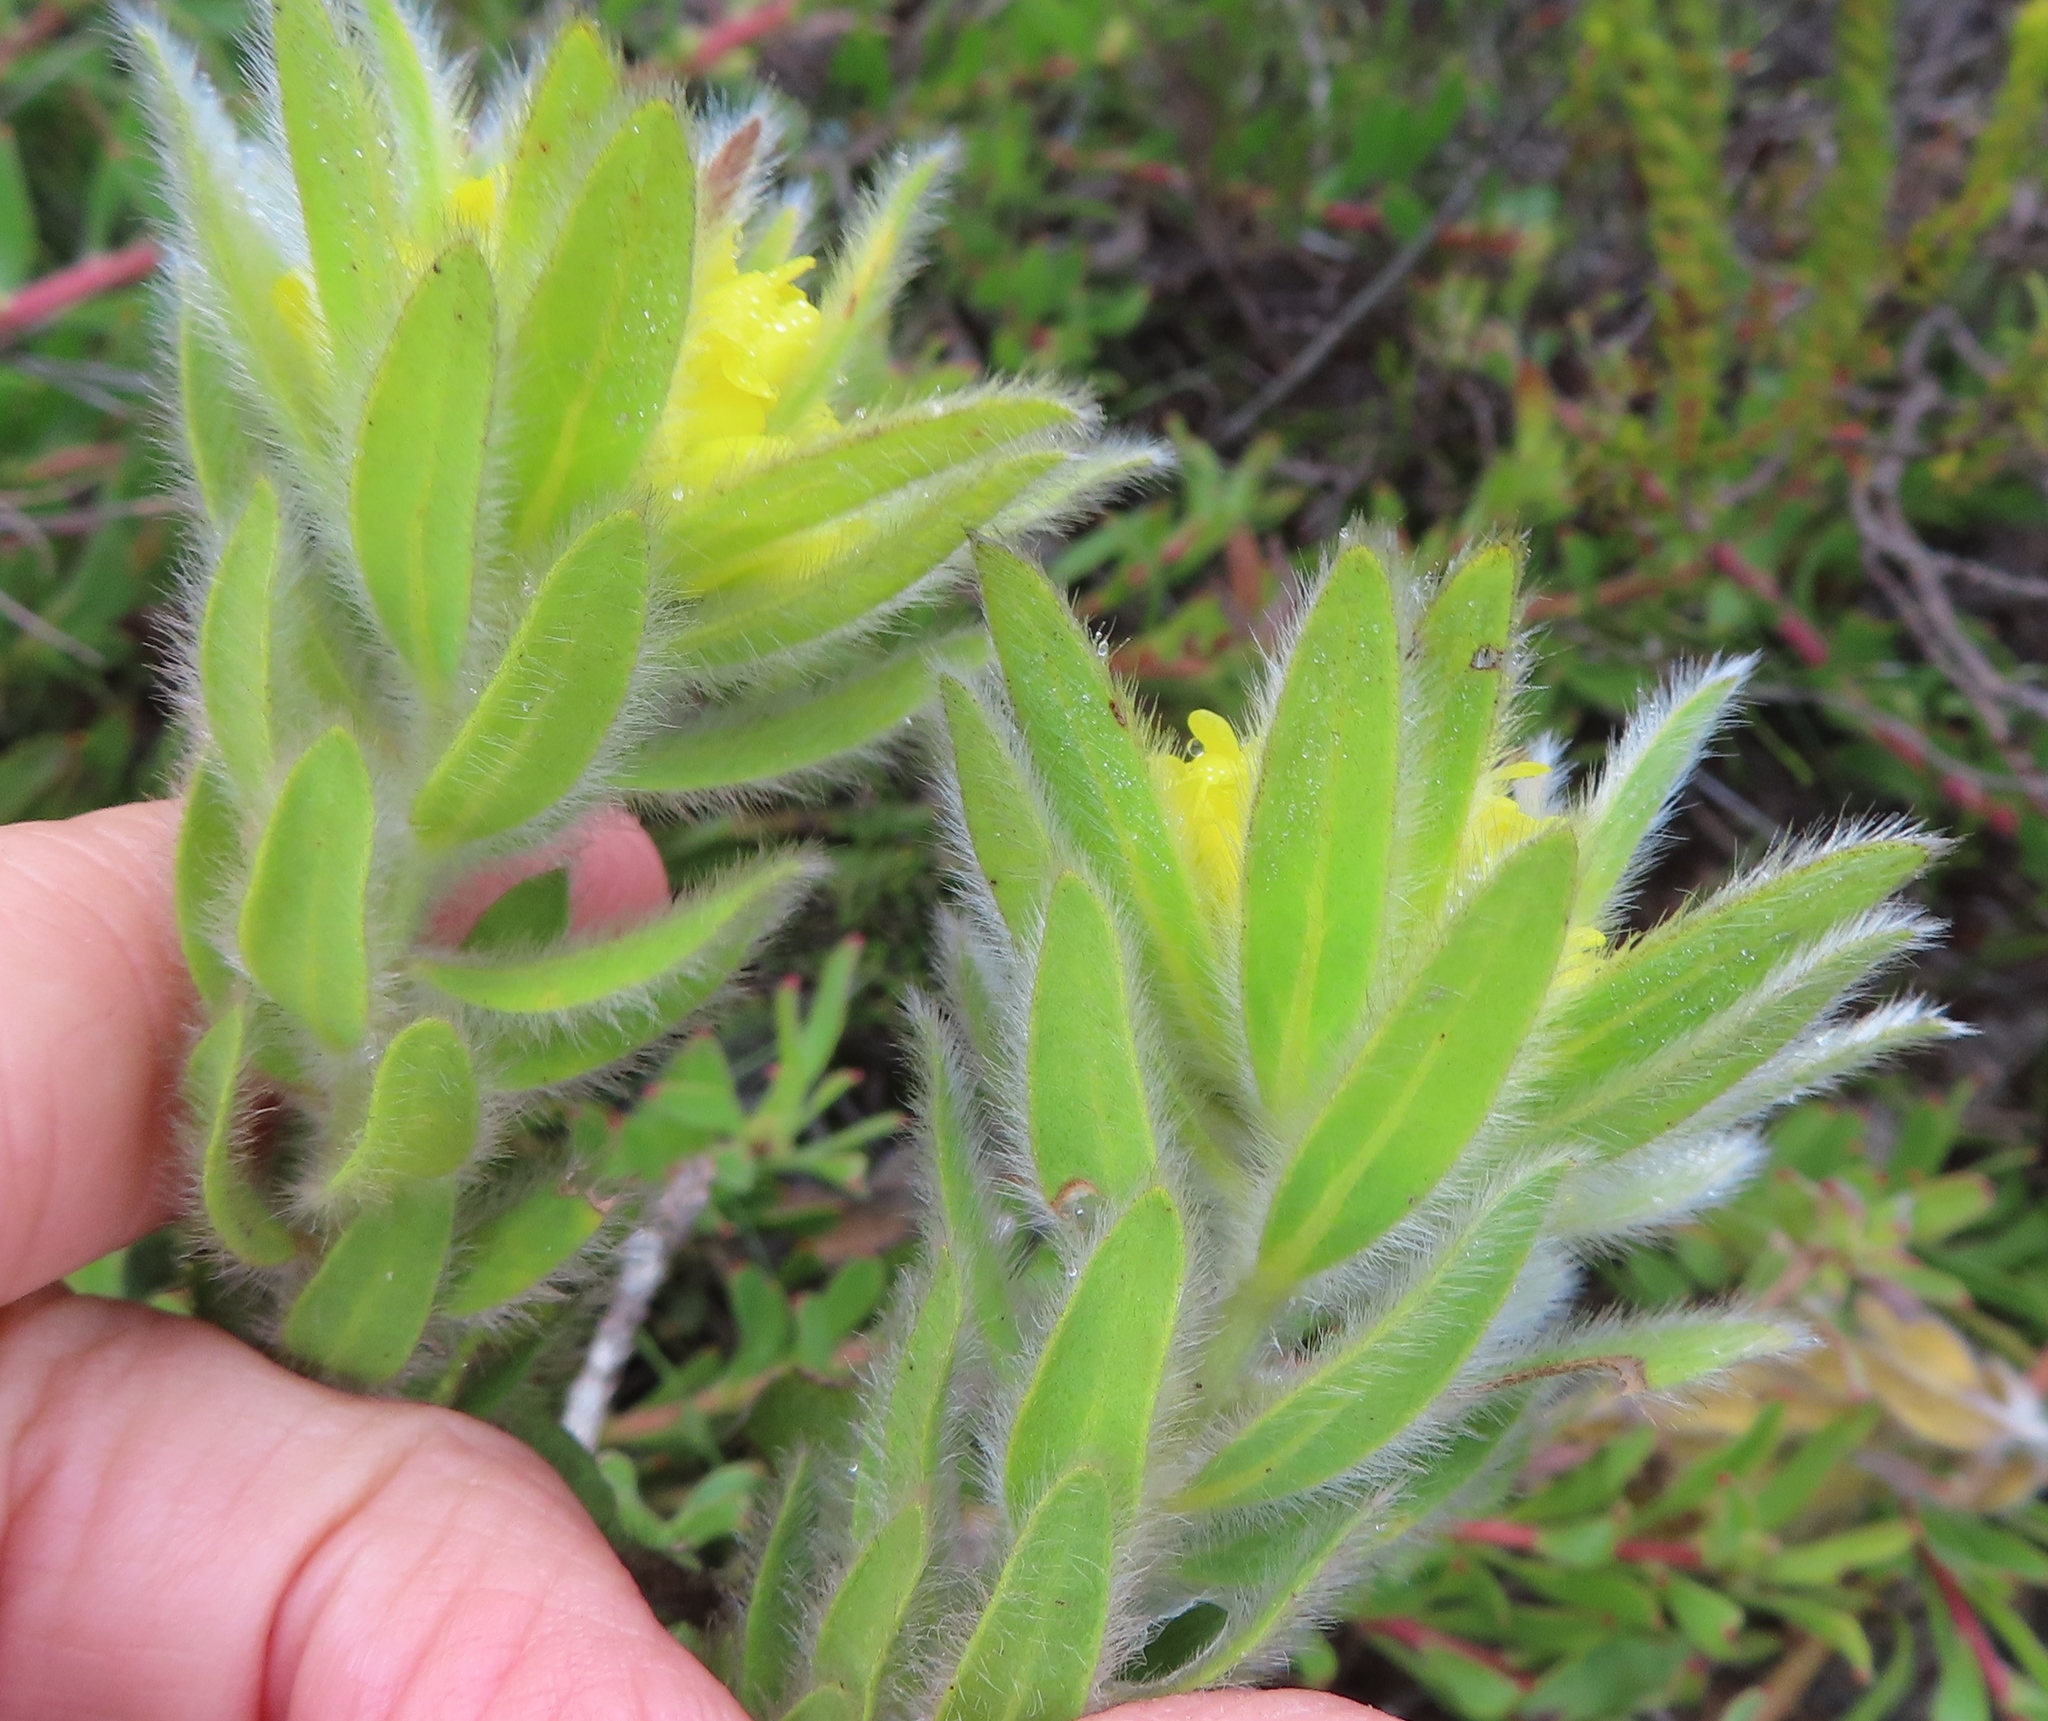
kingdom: Plantae
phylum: Tracheophyta
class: Magnoliopsida
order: Fabales
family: Fabaceae
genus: Xiphotheca
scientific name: Xiphotheca guthriei
